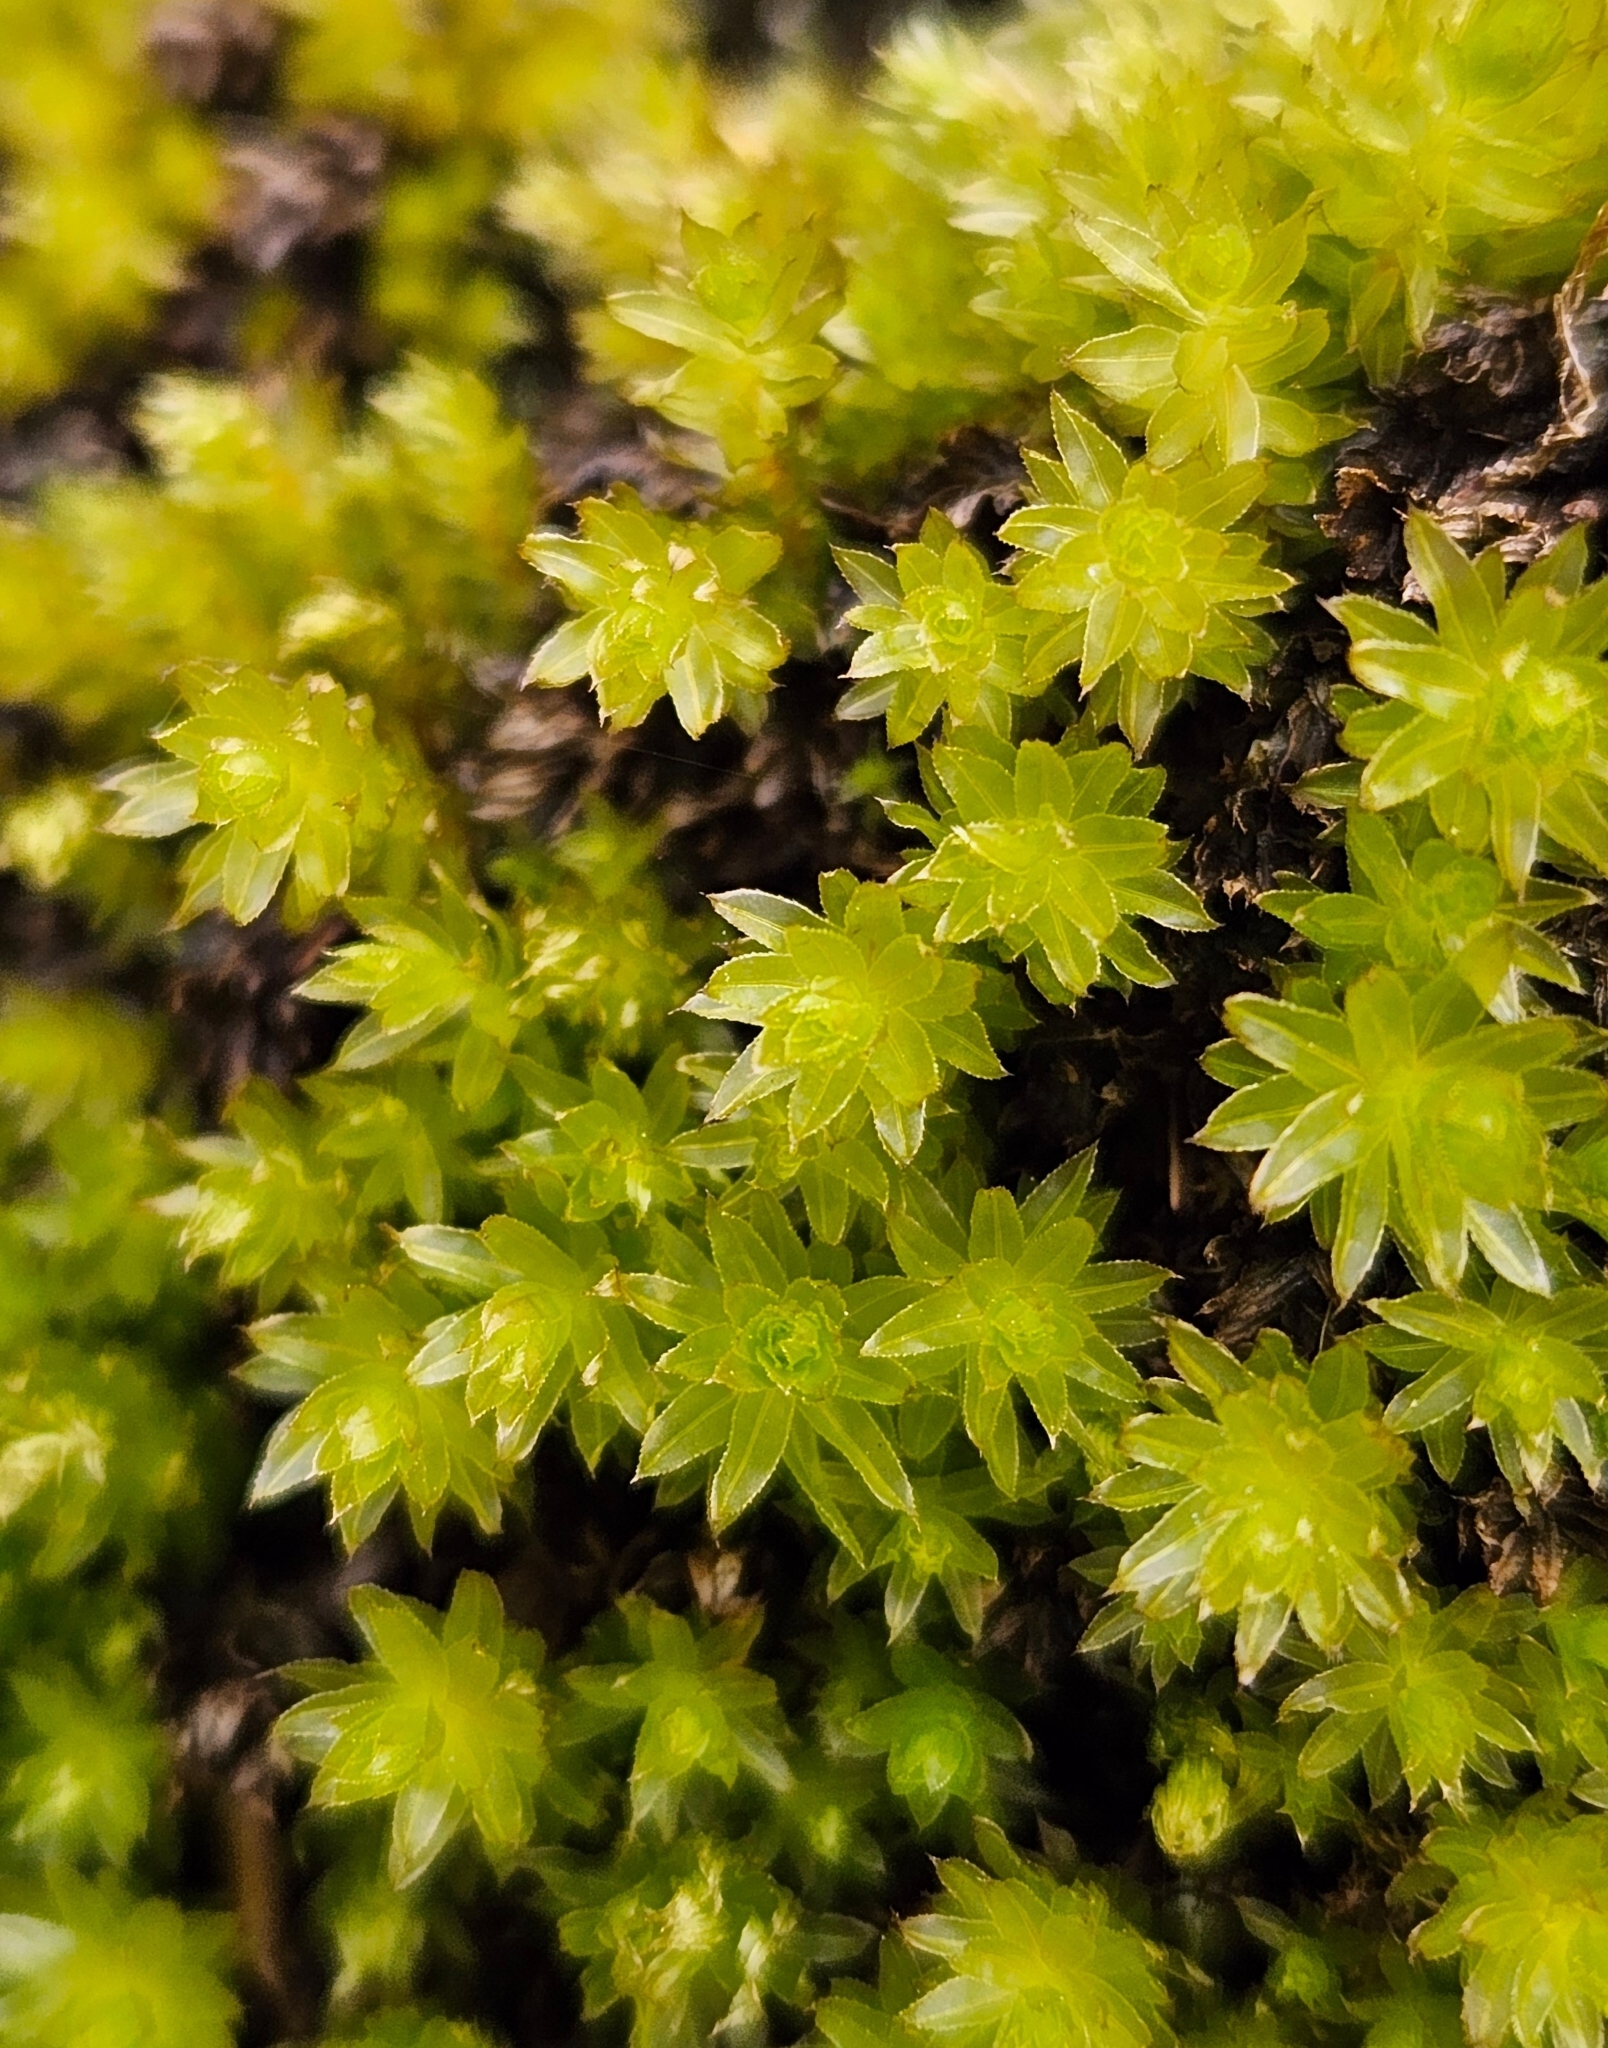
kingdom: Plantae
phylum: Bryophyta
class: Bryopsida
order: Bryales
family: Mniaceae
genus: Mnium
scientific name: Mnium hornum
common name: Swan's-neck leafy moss
